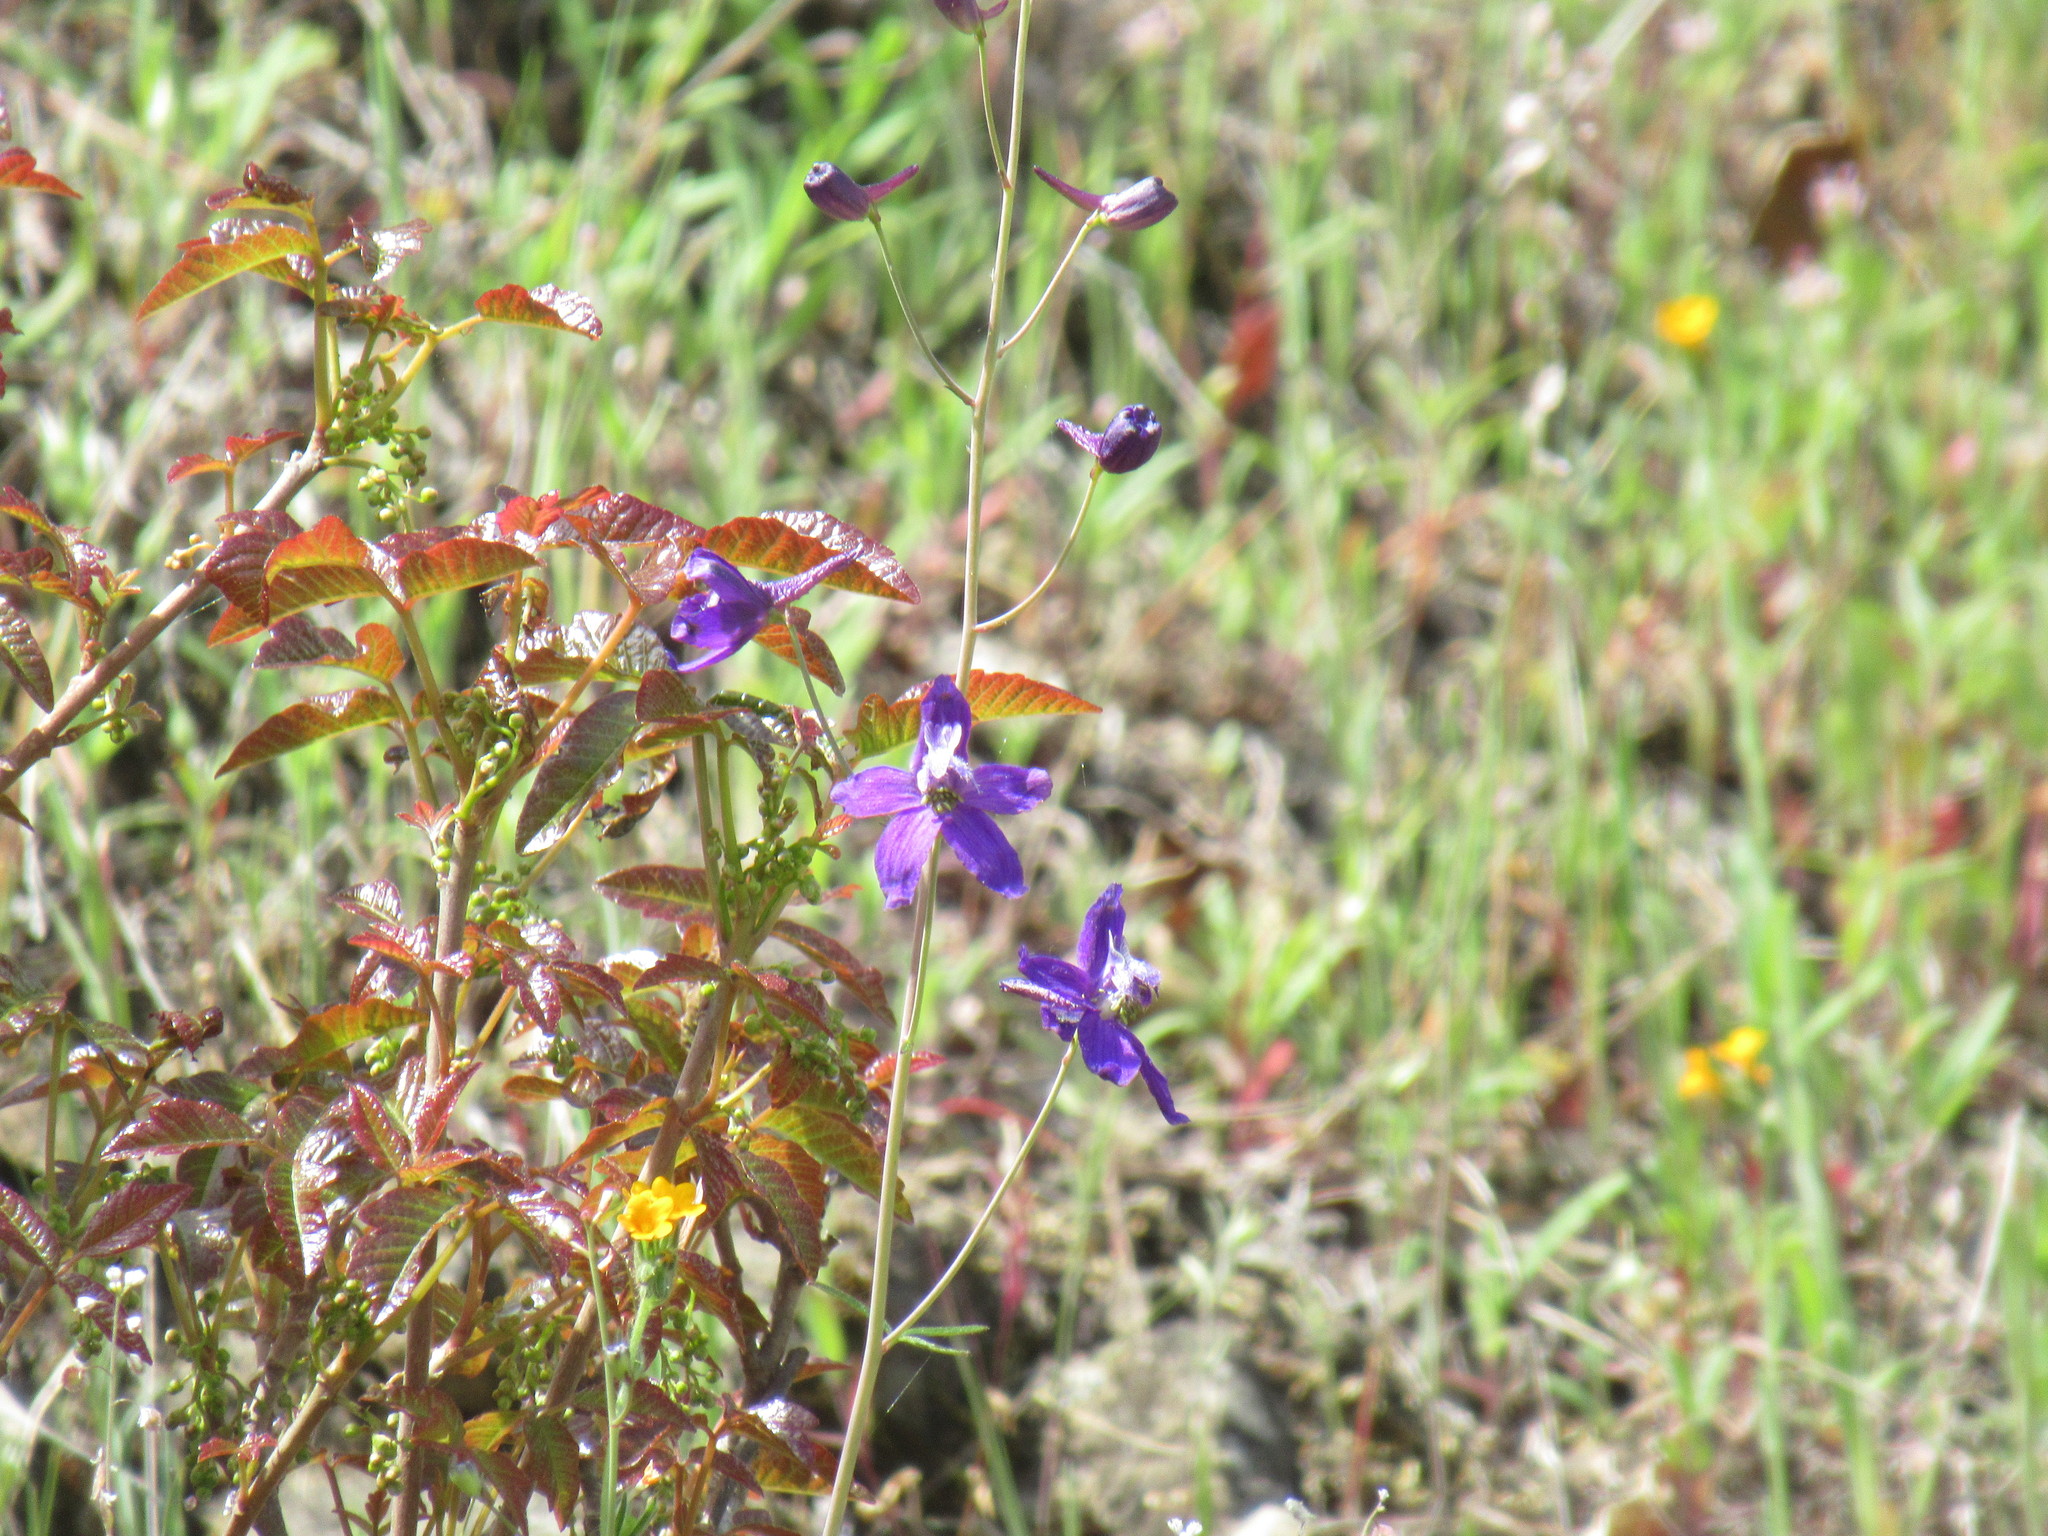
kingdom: Plantae
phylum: Tracheophyta
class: Magnoliopsida
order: Ranunculales
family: Ranunculaceae
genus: Delphinium
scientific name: Delphinium patens
